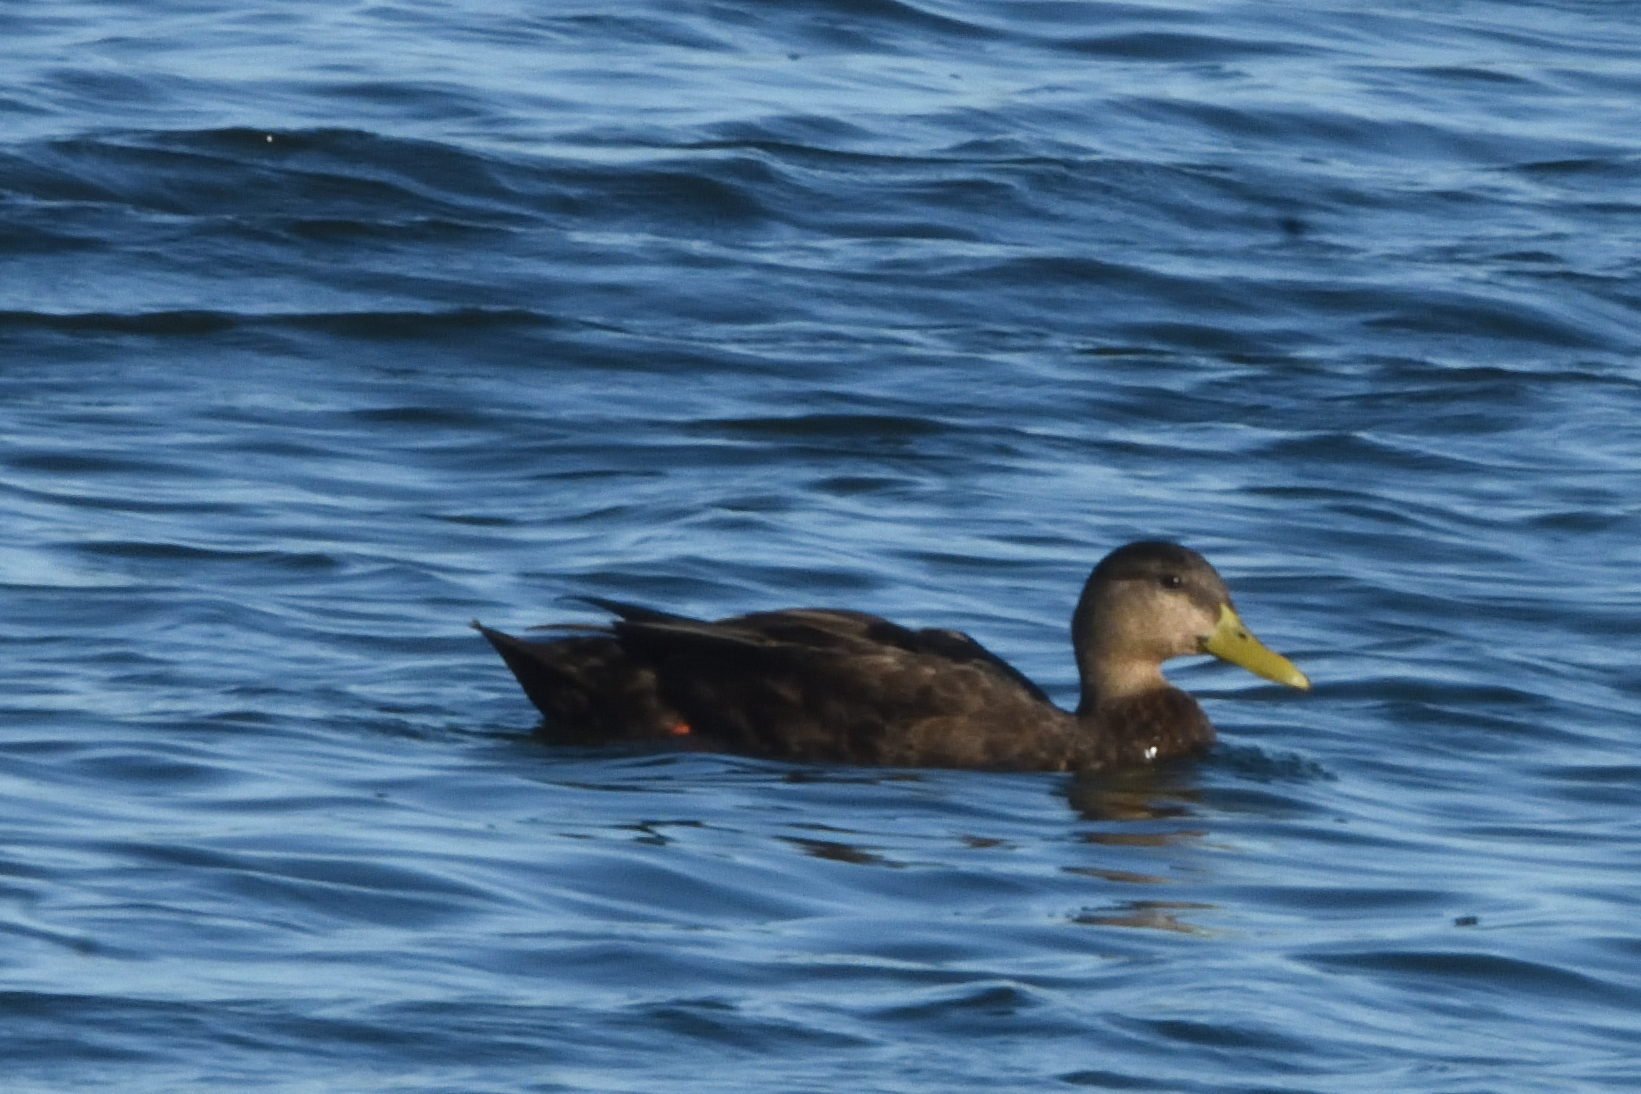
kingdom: Animalia
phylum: Chordata
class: Aves
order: Anseriformes
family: Anatidae
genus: Anas
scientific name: Anas rubripes
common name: American black duck
